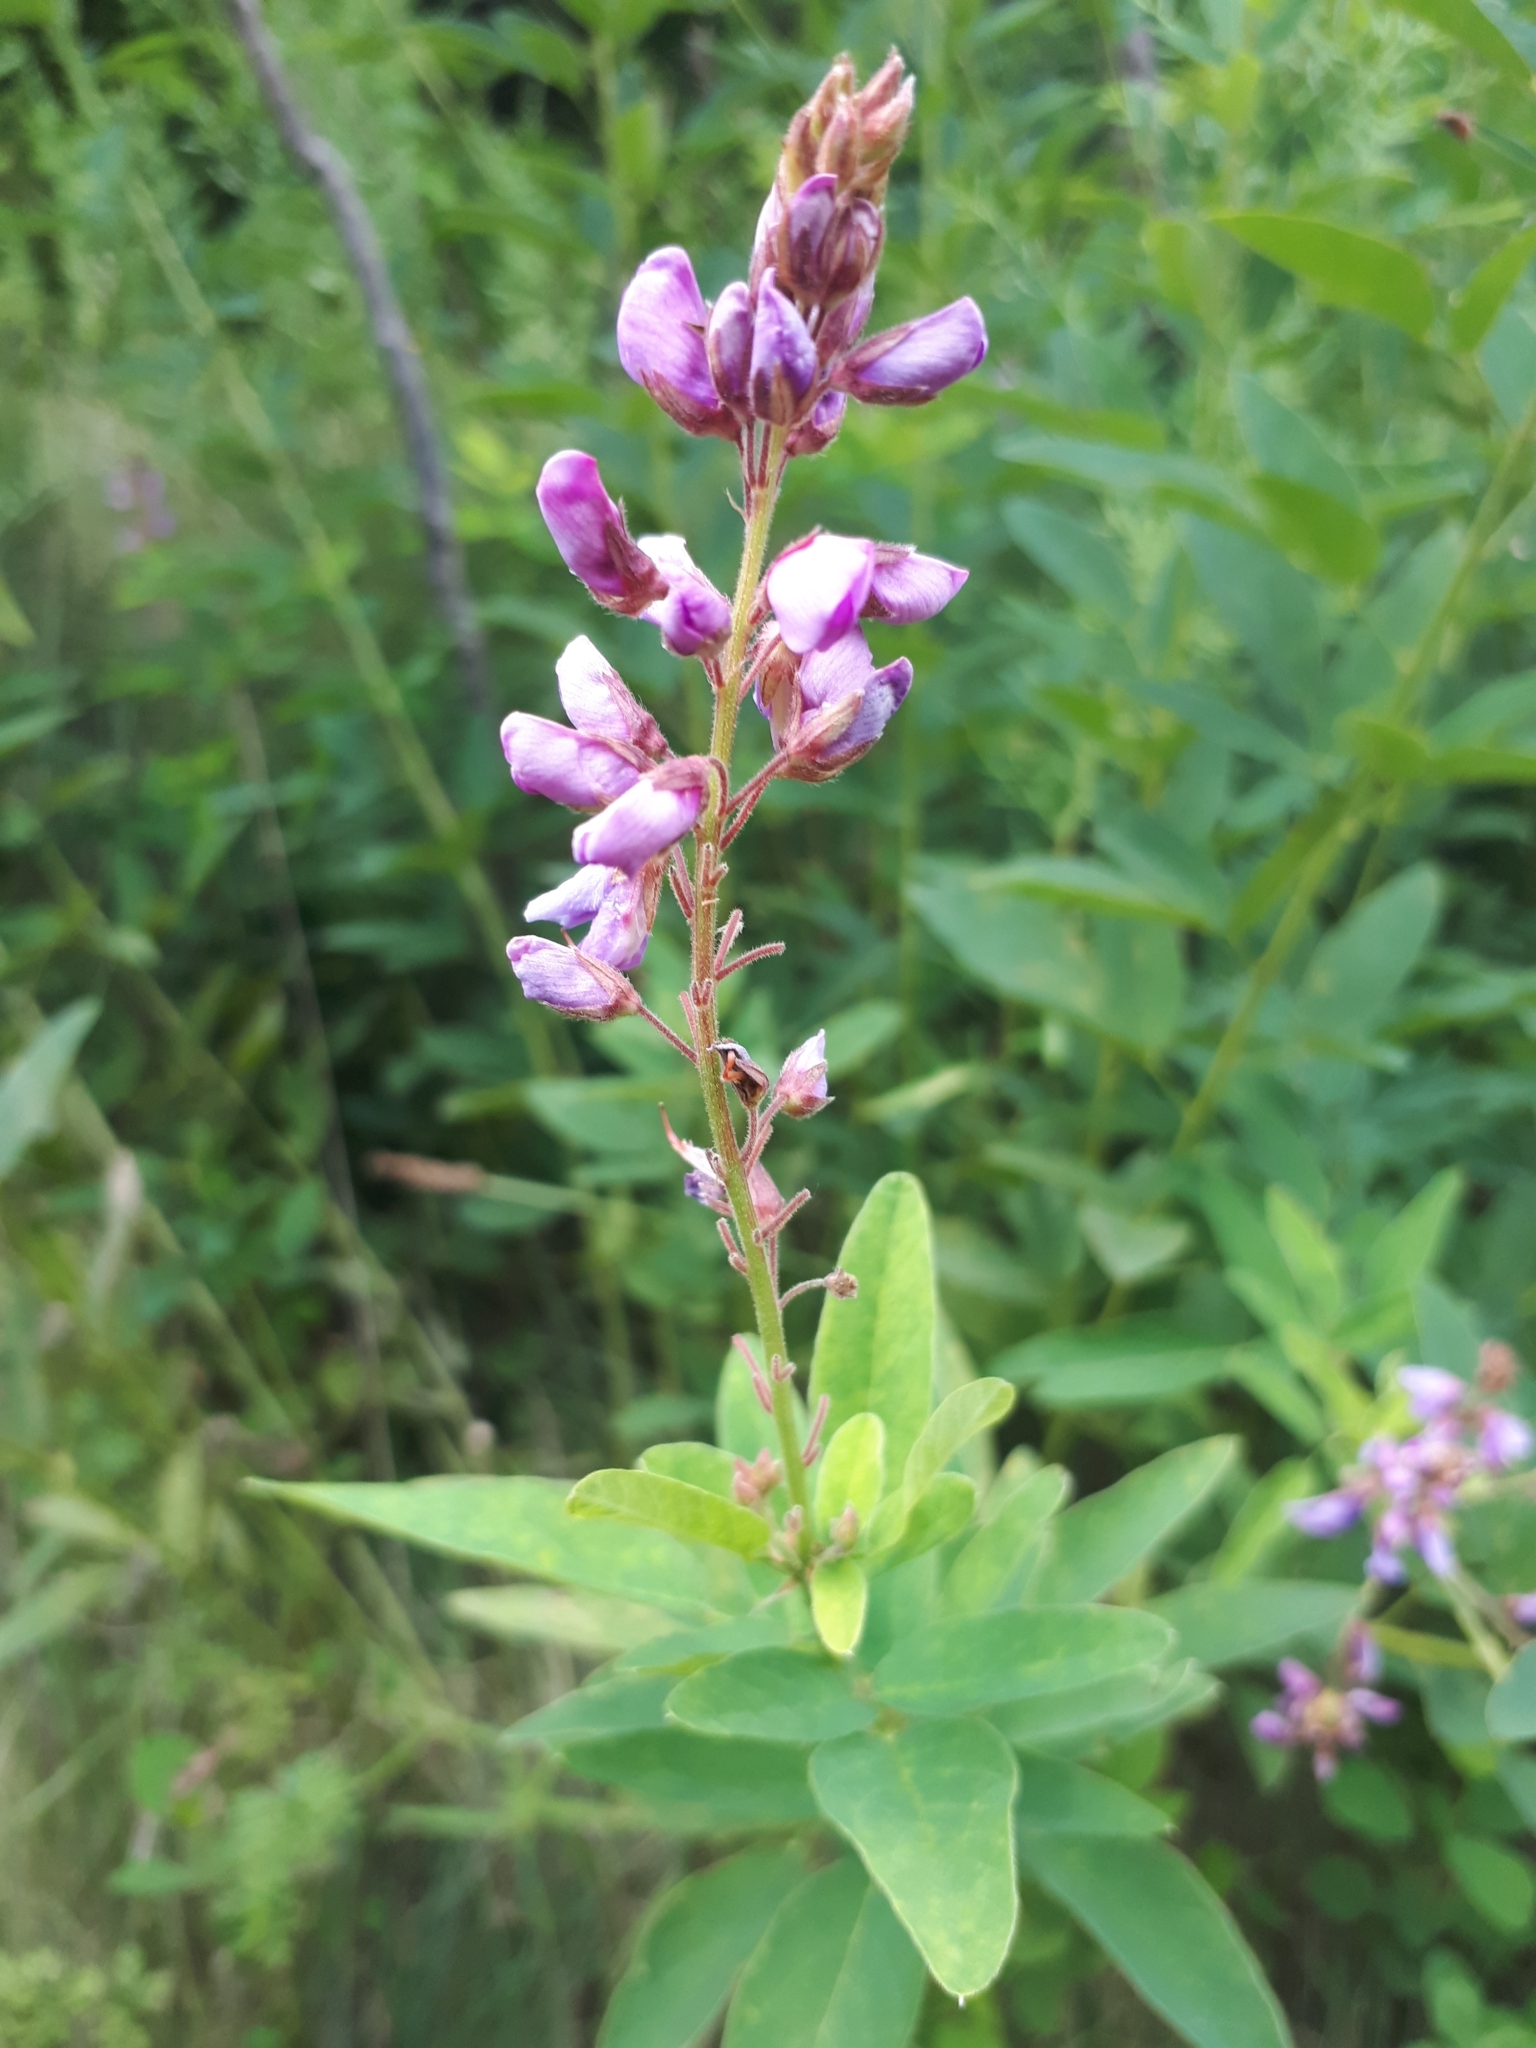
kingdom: Plantae
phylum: Tracheophyta
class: Magnoliopsida
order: Fabales
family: Fabaceae
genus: Desmodium
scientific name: Desmodium canadense
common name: Canada tick-trefoil
